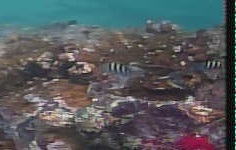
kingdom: Animalia
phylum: Chordata
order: Perciformes
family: Pomacentridae
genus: Abudefduf
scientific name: Abudefduf saxatilis
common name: Sergeant major
